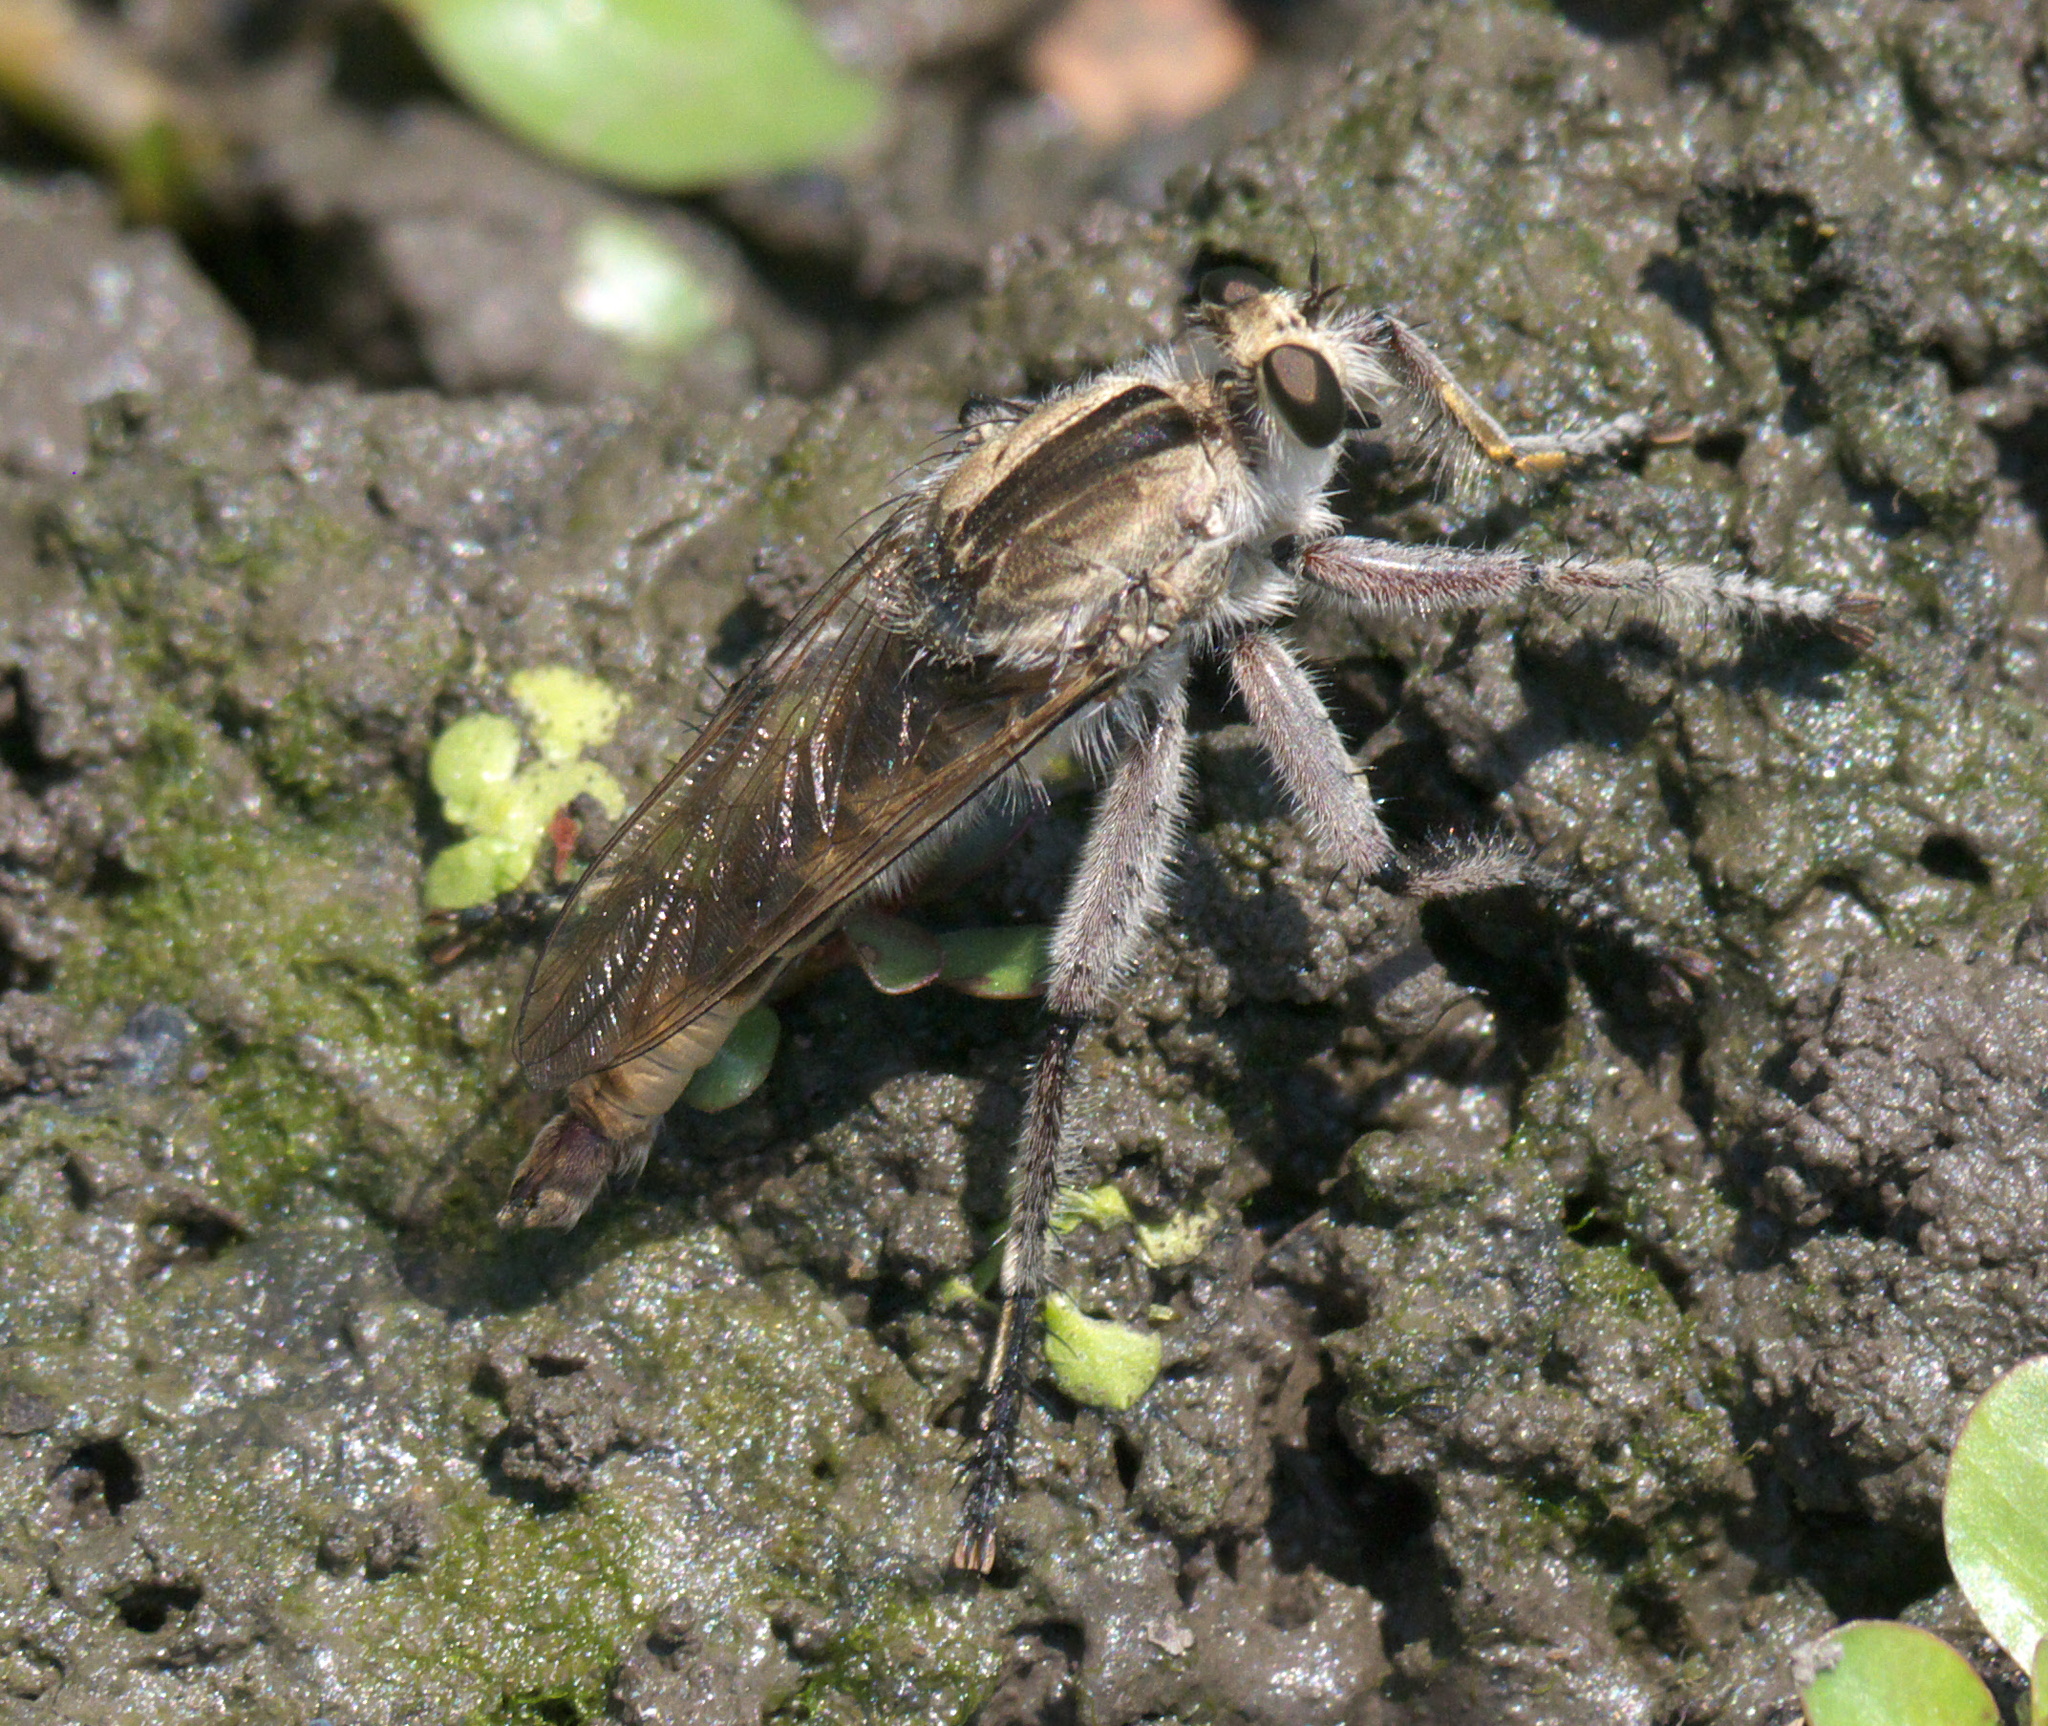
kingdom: Animalia
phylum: Arthropoda
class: Insecta
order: Diptera
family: Asilidae
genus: Triorla
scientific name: Triorla interrupta
